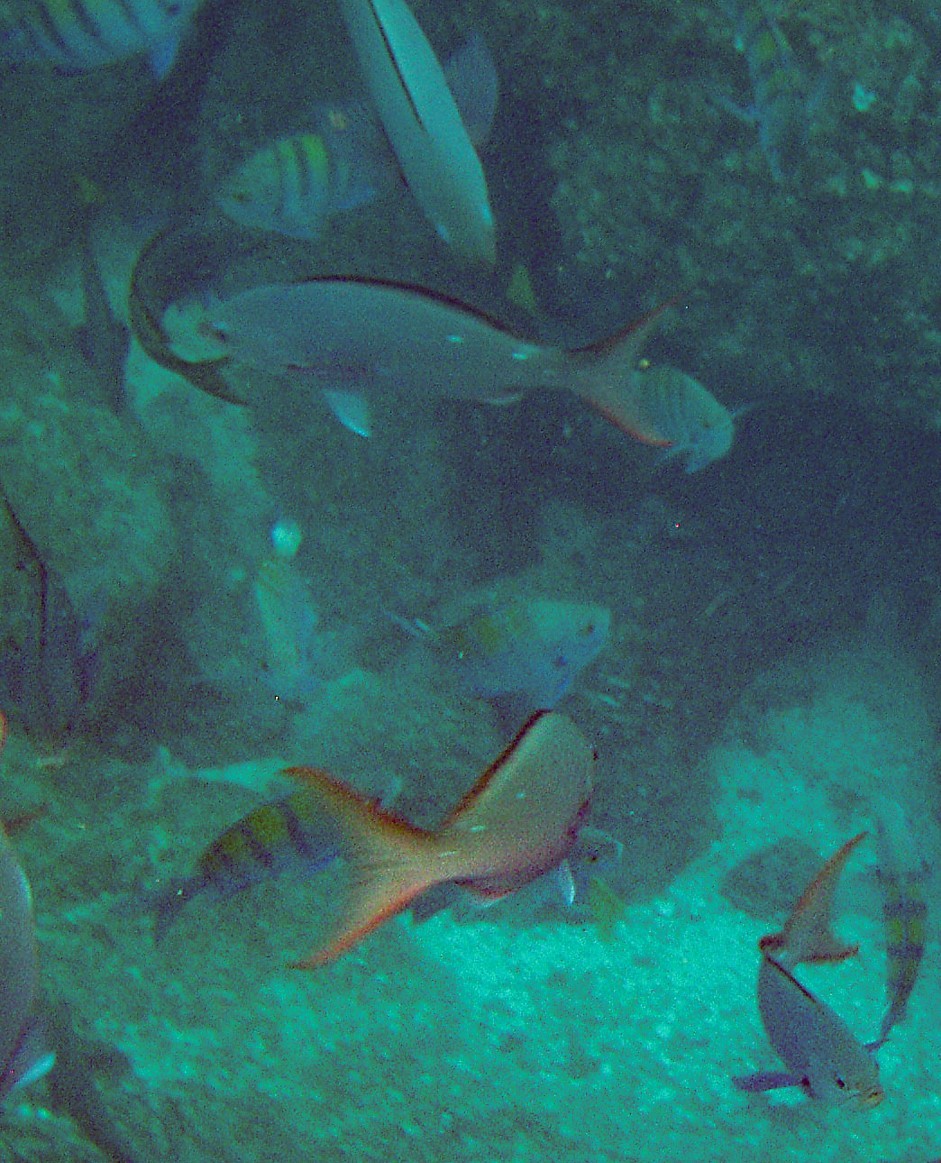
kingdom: Animalia
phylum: Chordata
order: Perciformes
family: Serranidae
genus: Paranthias
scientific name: Paranthias colonus
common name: Pacific creole-fish
